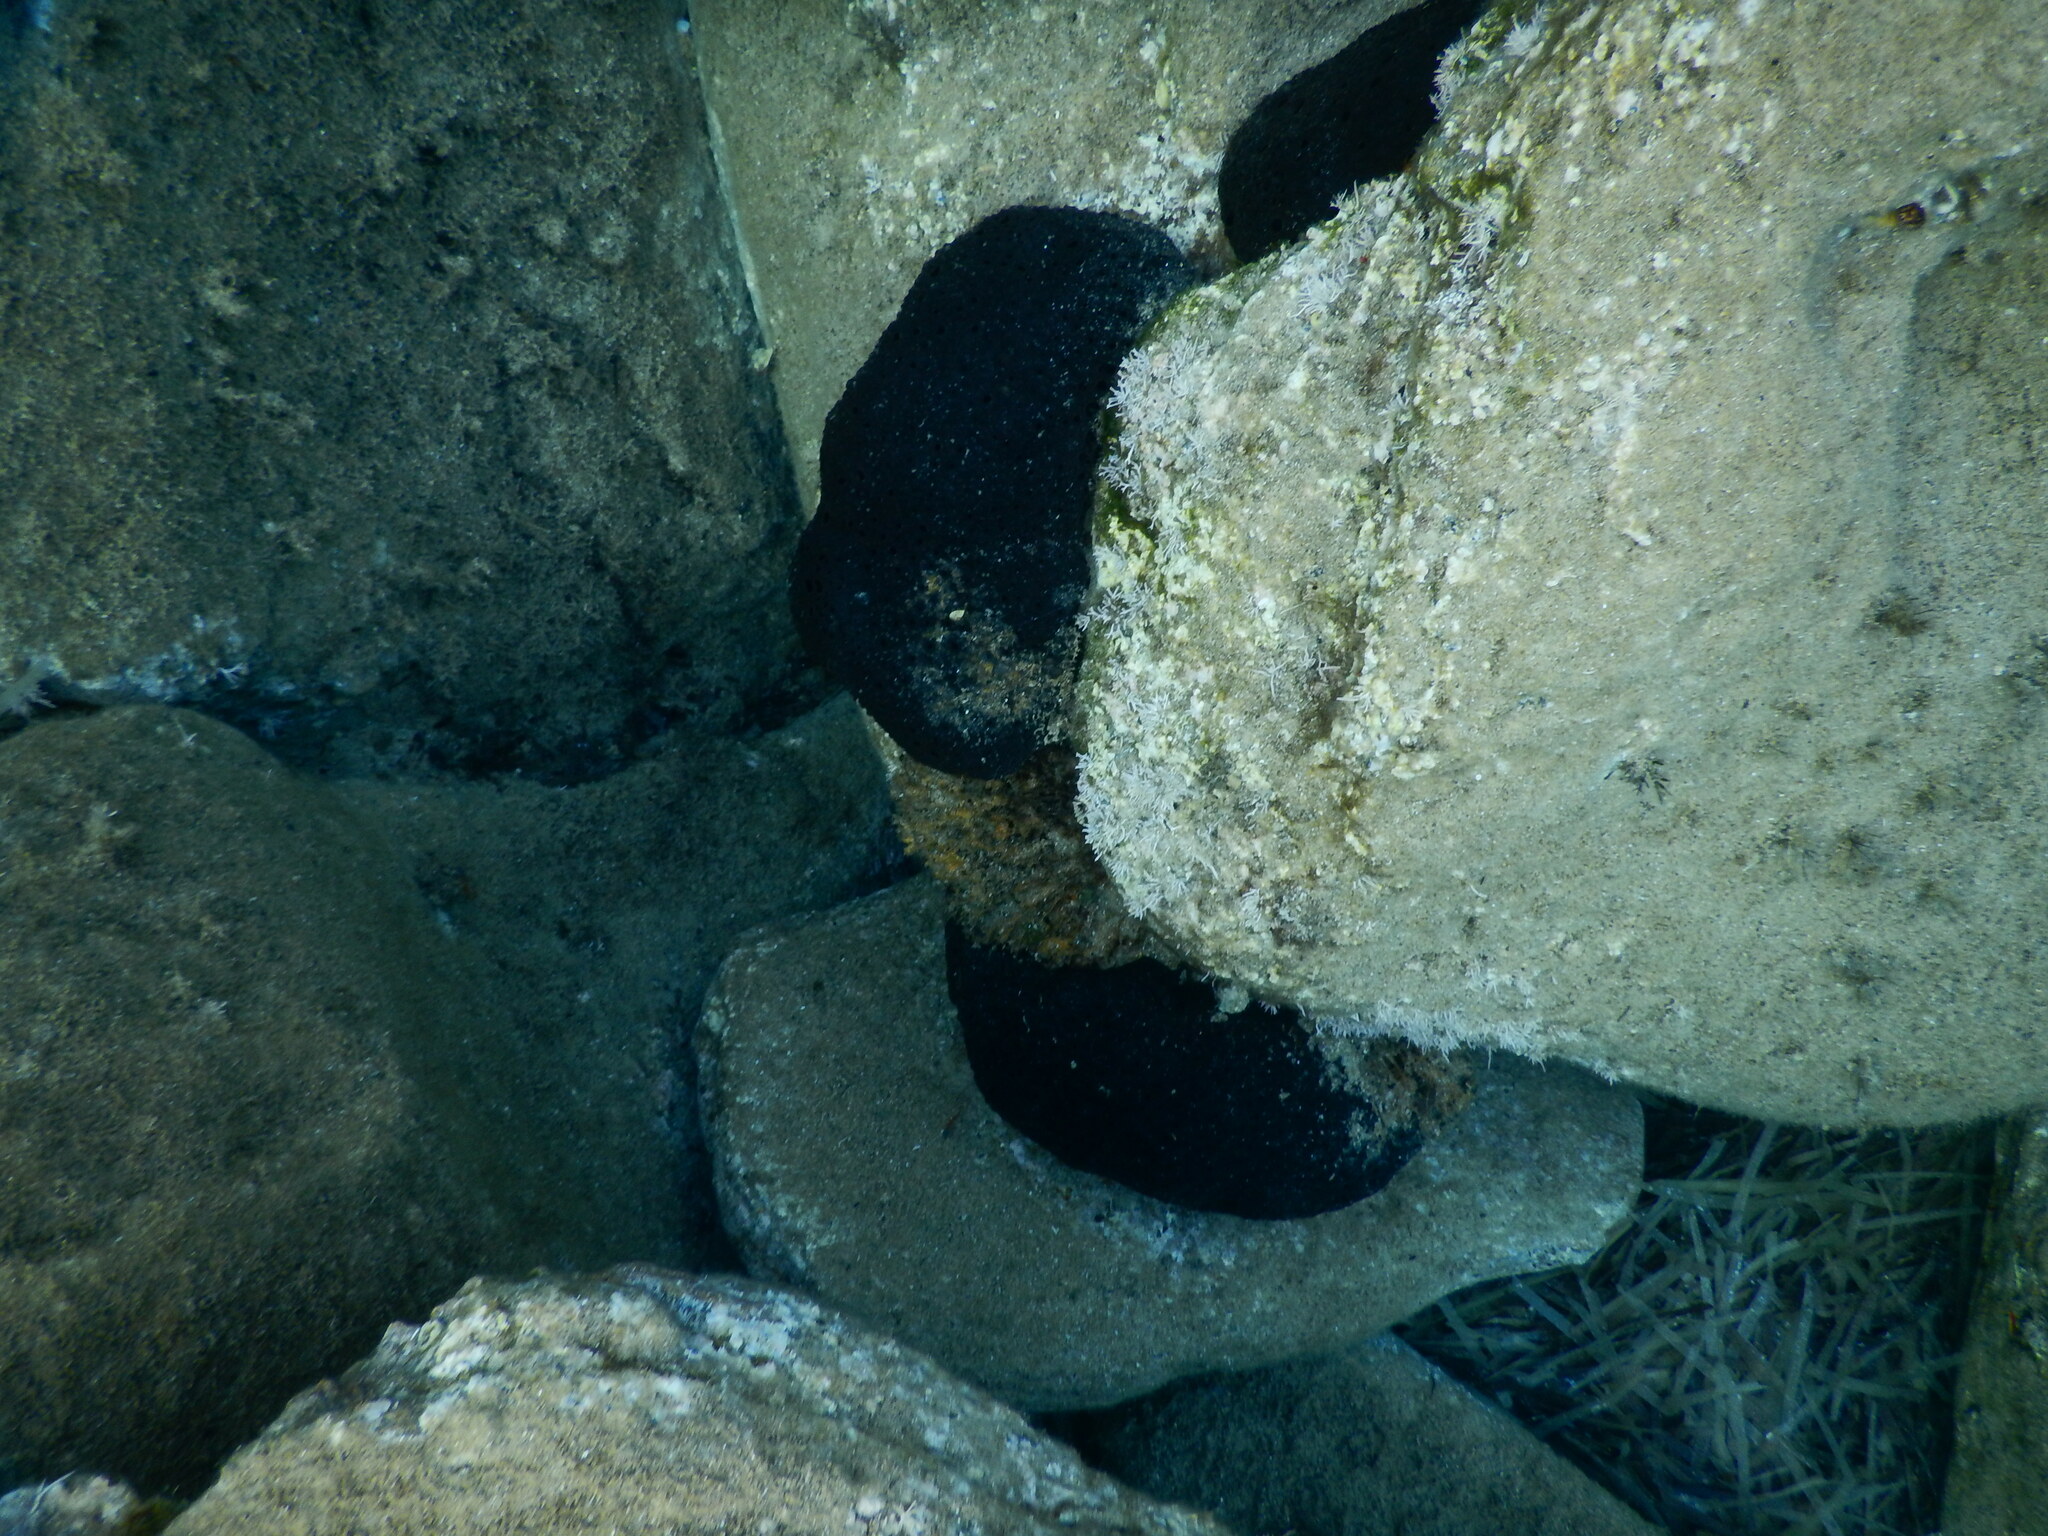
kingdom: Animalia
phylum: Porifera
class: Demospongiae
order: Dictyoceratida
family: Irciniidae
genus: Sarcotragus
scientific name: Sarcotragus spinosulus
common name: Black leather sponge
